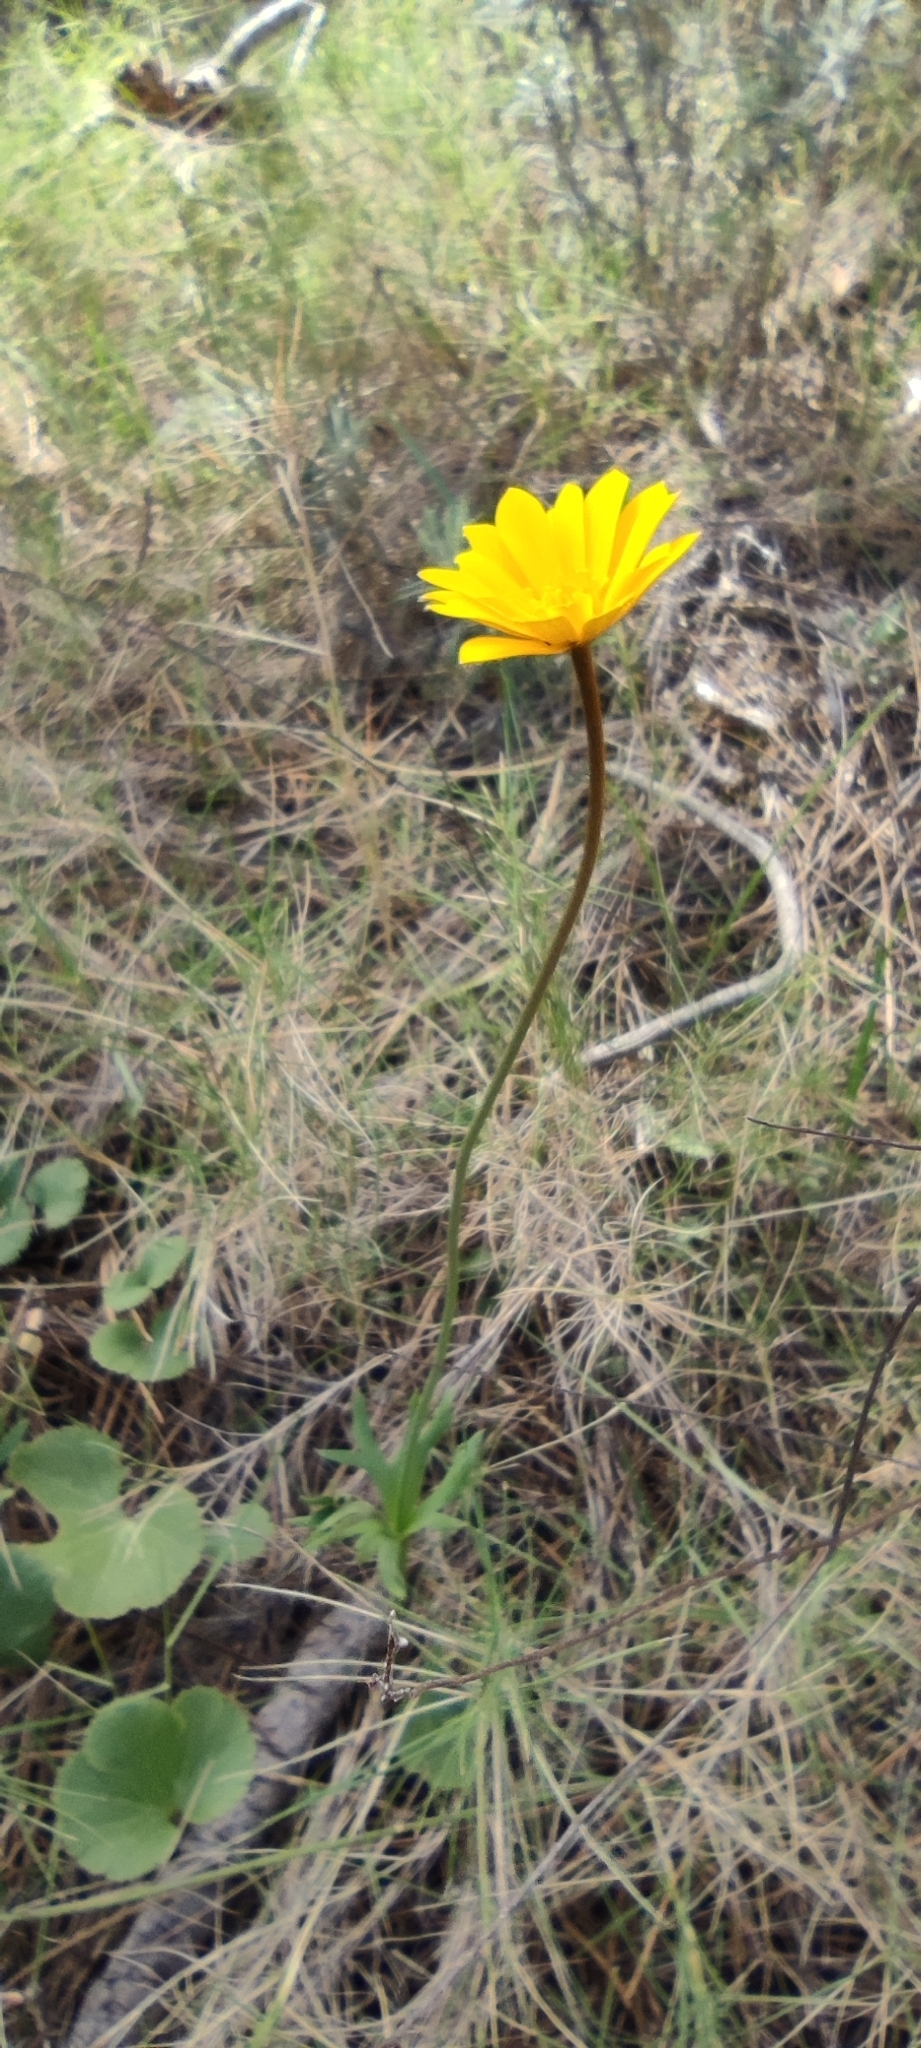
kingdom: Plantae
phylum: Tracheophyta
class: Magnoliopsida
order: Ranunculales
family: Ranunculaceae
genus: Anemone
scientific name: Anemone palmata
